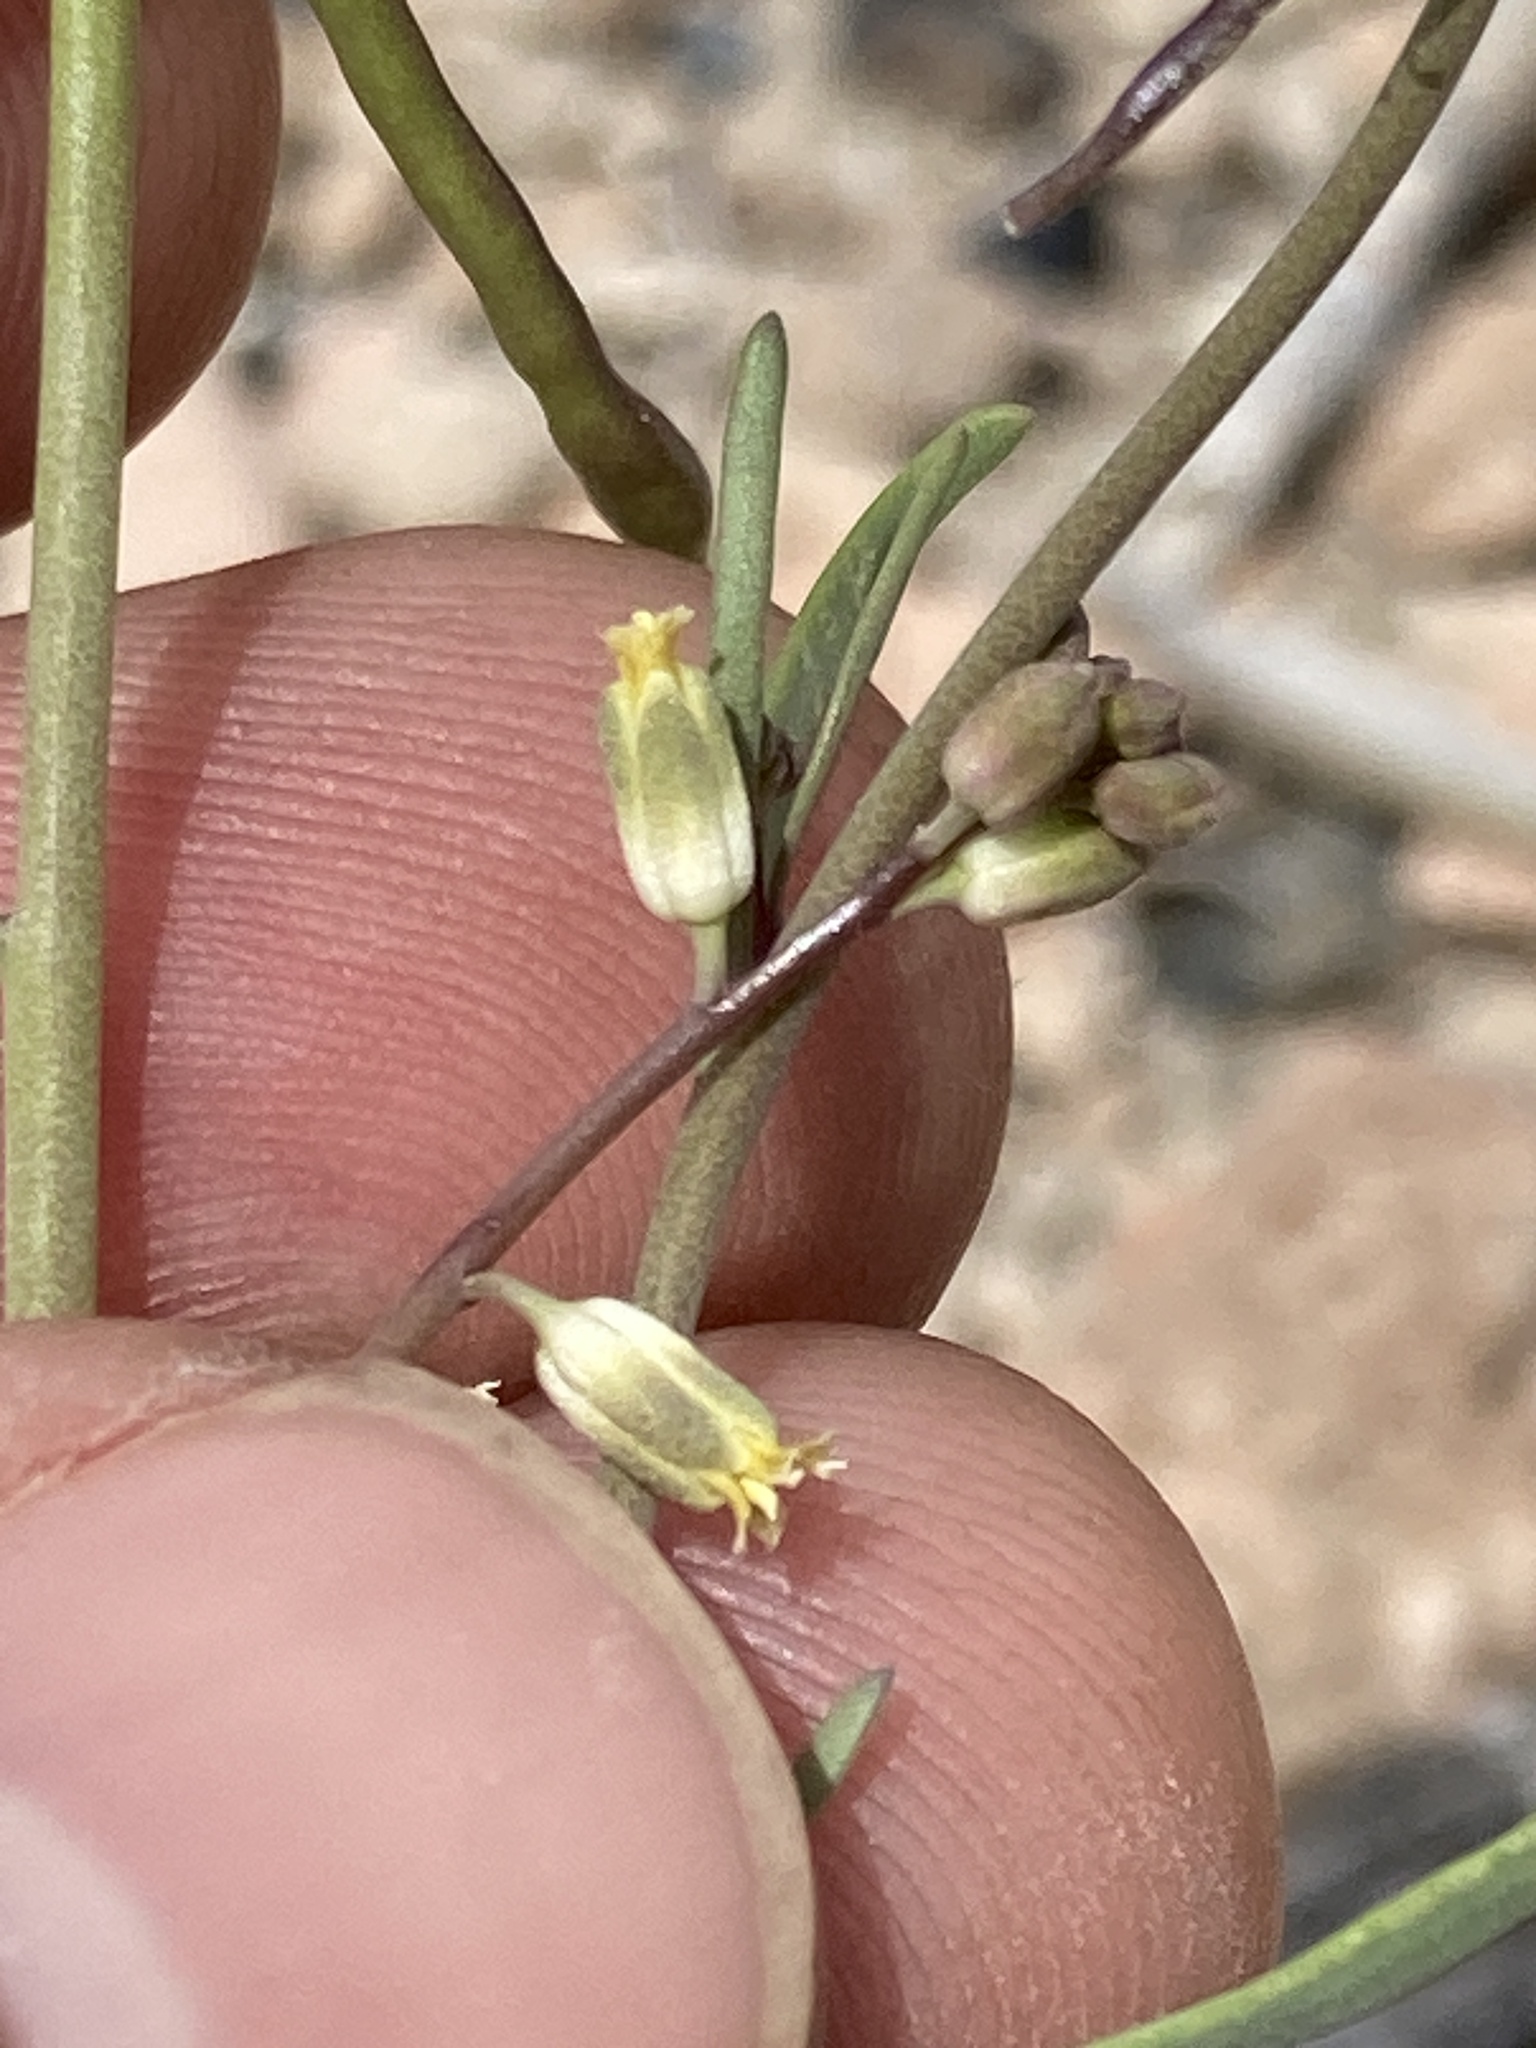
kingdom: Plantae
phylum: Tracheophyta
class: Magnoliopsida
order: Brassicales
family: Brassicaceae
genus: Streptanthus
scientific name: Streptanthus longirostris
